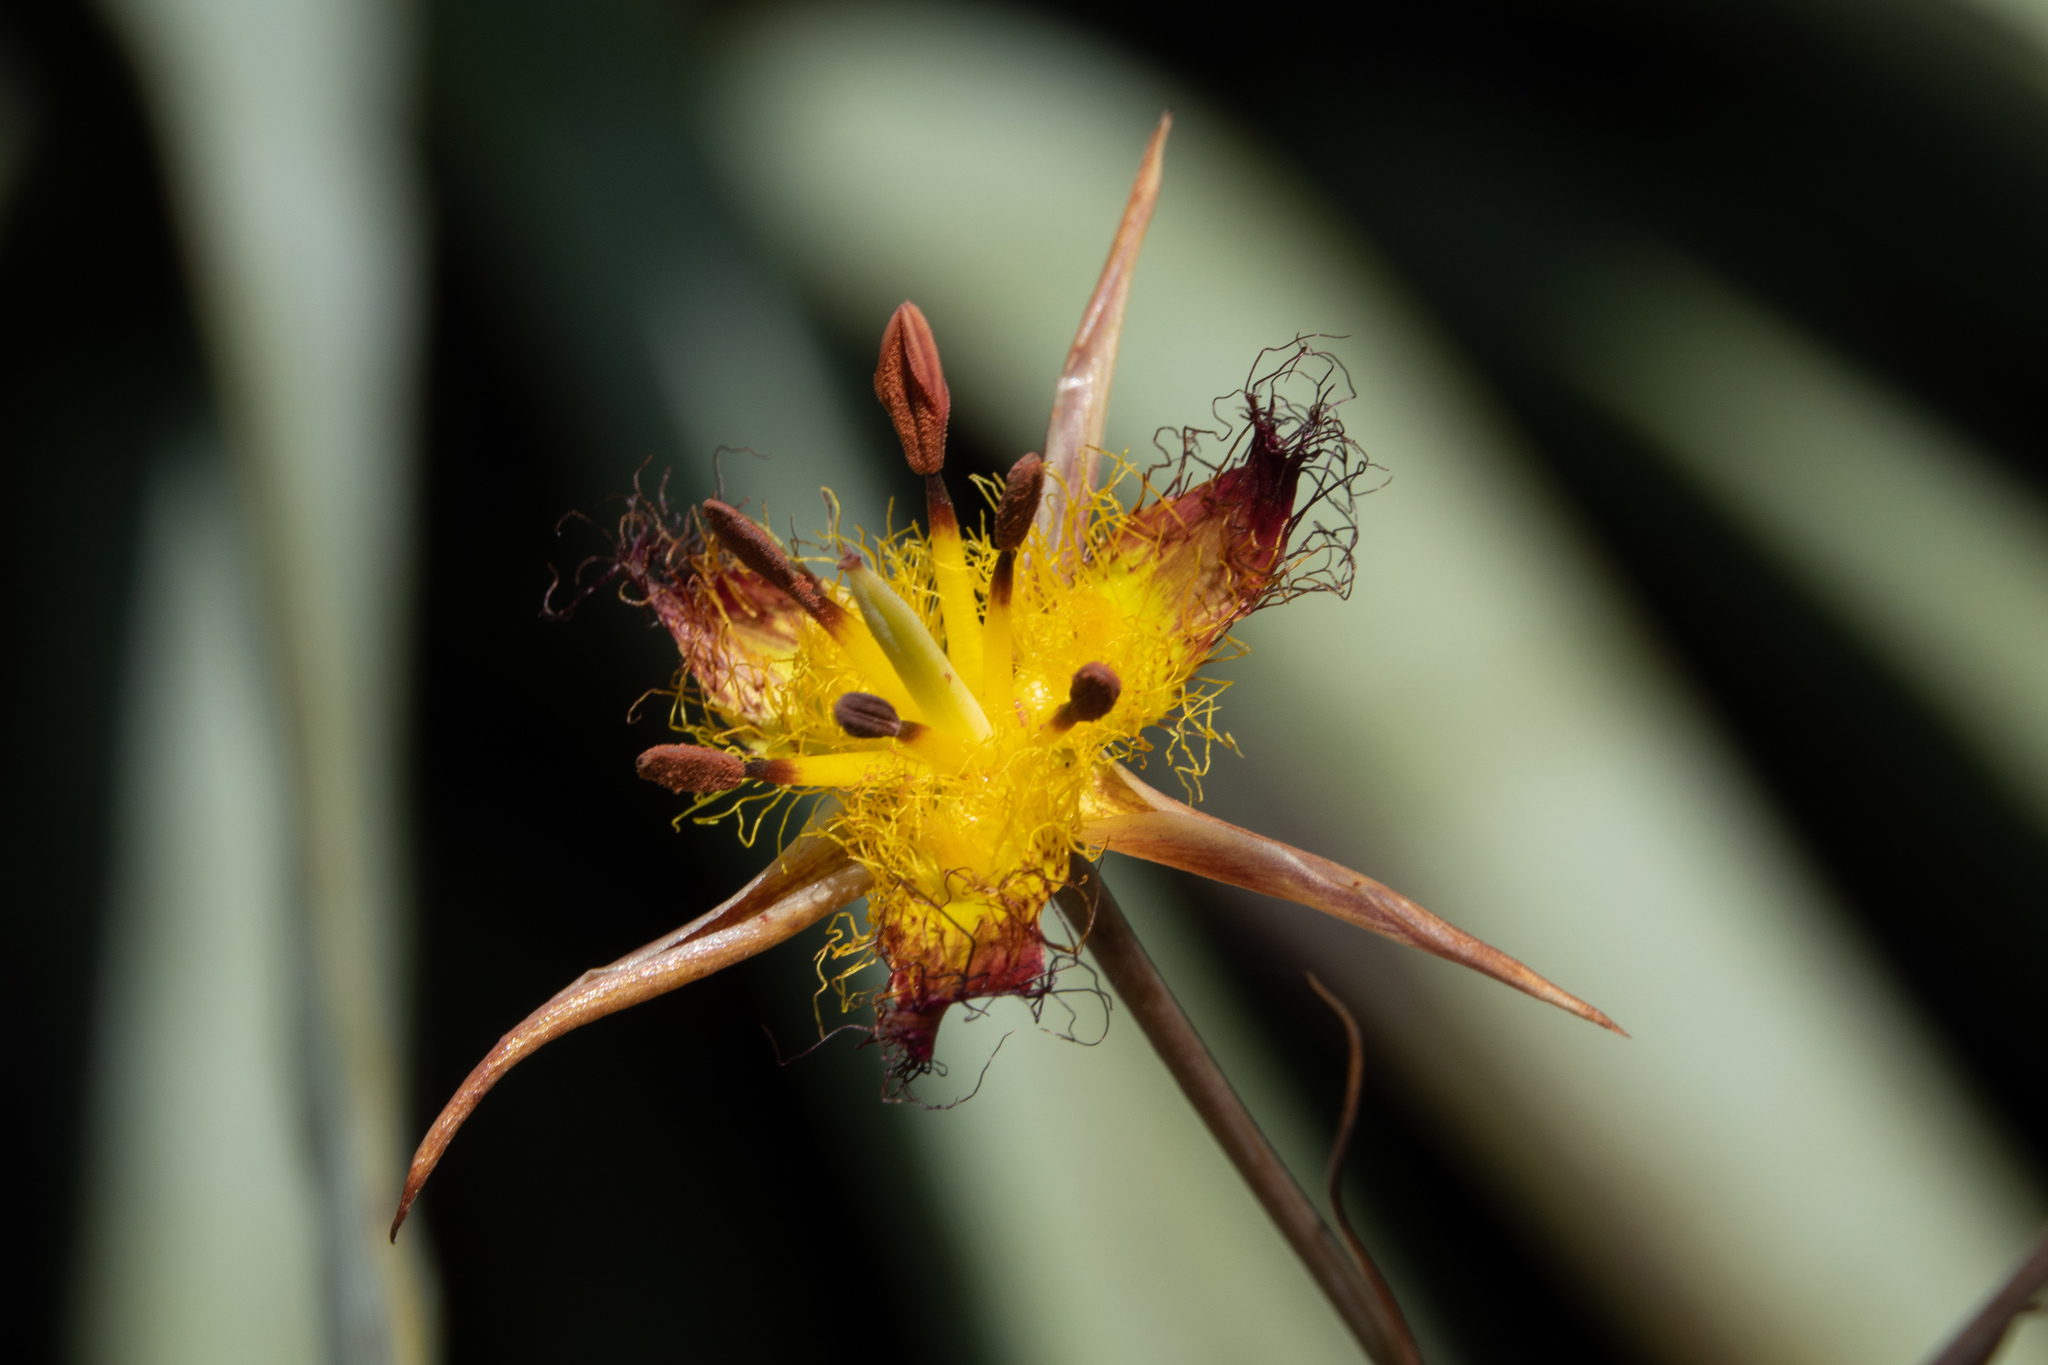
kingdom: Plantae
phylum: Tracheophyta
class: Liliopsida
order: Liliales
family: Liliaceae
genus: Calochortus
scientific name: Calochortus obispoensis
